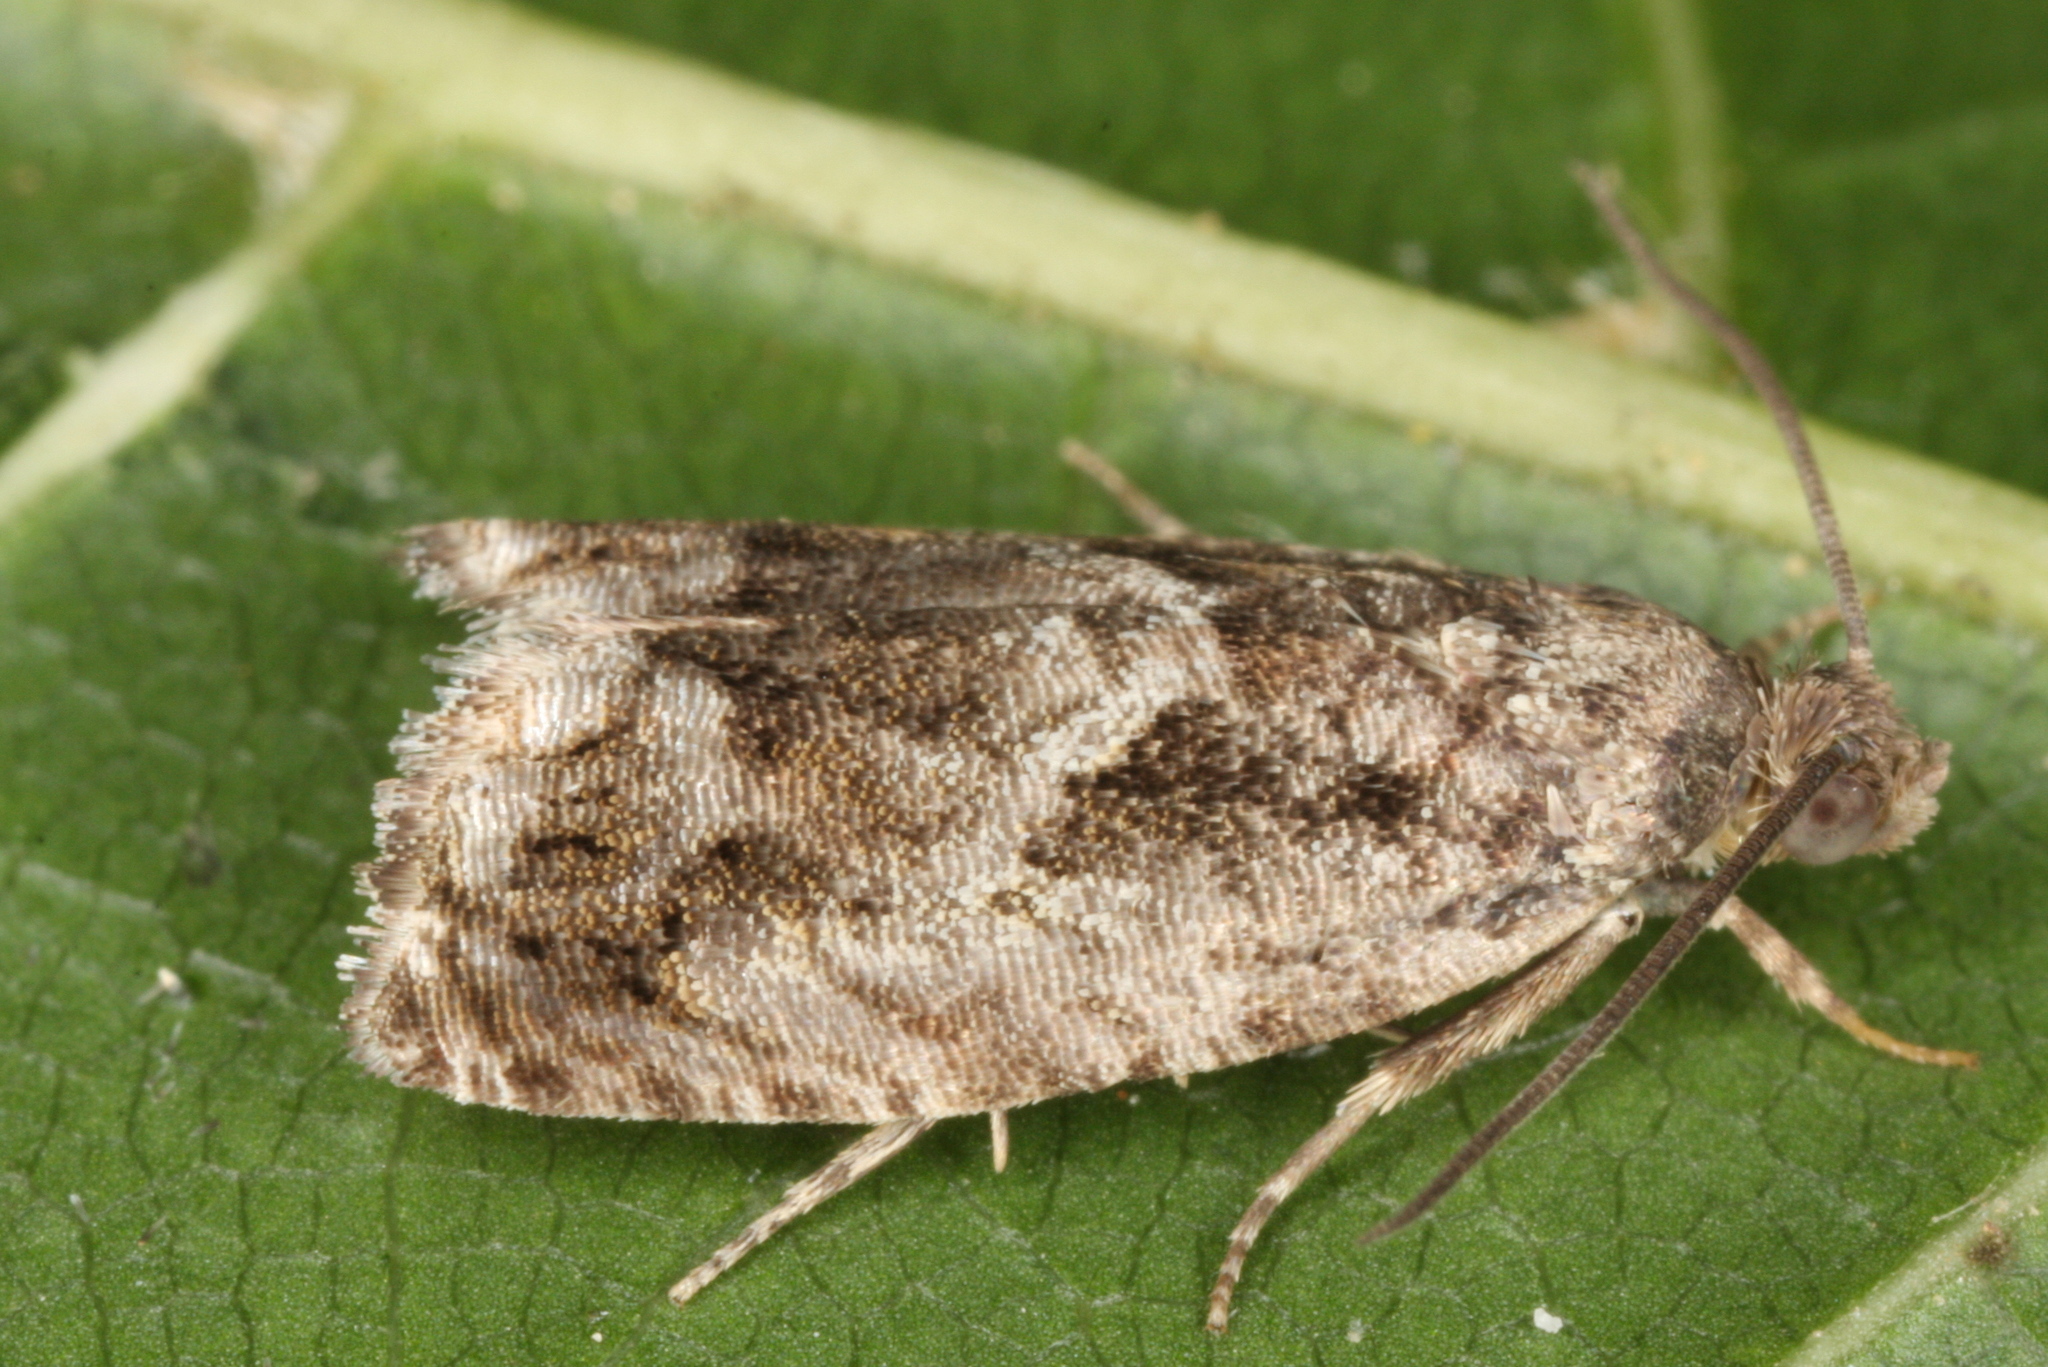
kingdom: Animalia
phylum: Arthropoda
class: Insecta
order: Lepidoptera
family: Tortricidae
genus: Cydia
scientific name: Cydia fagiglandana
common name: Large beech piercer
